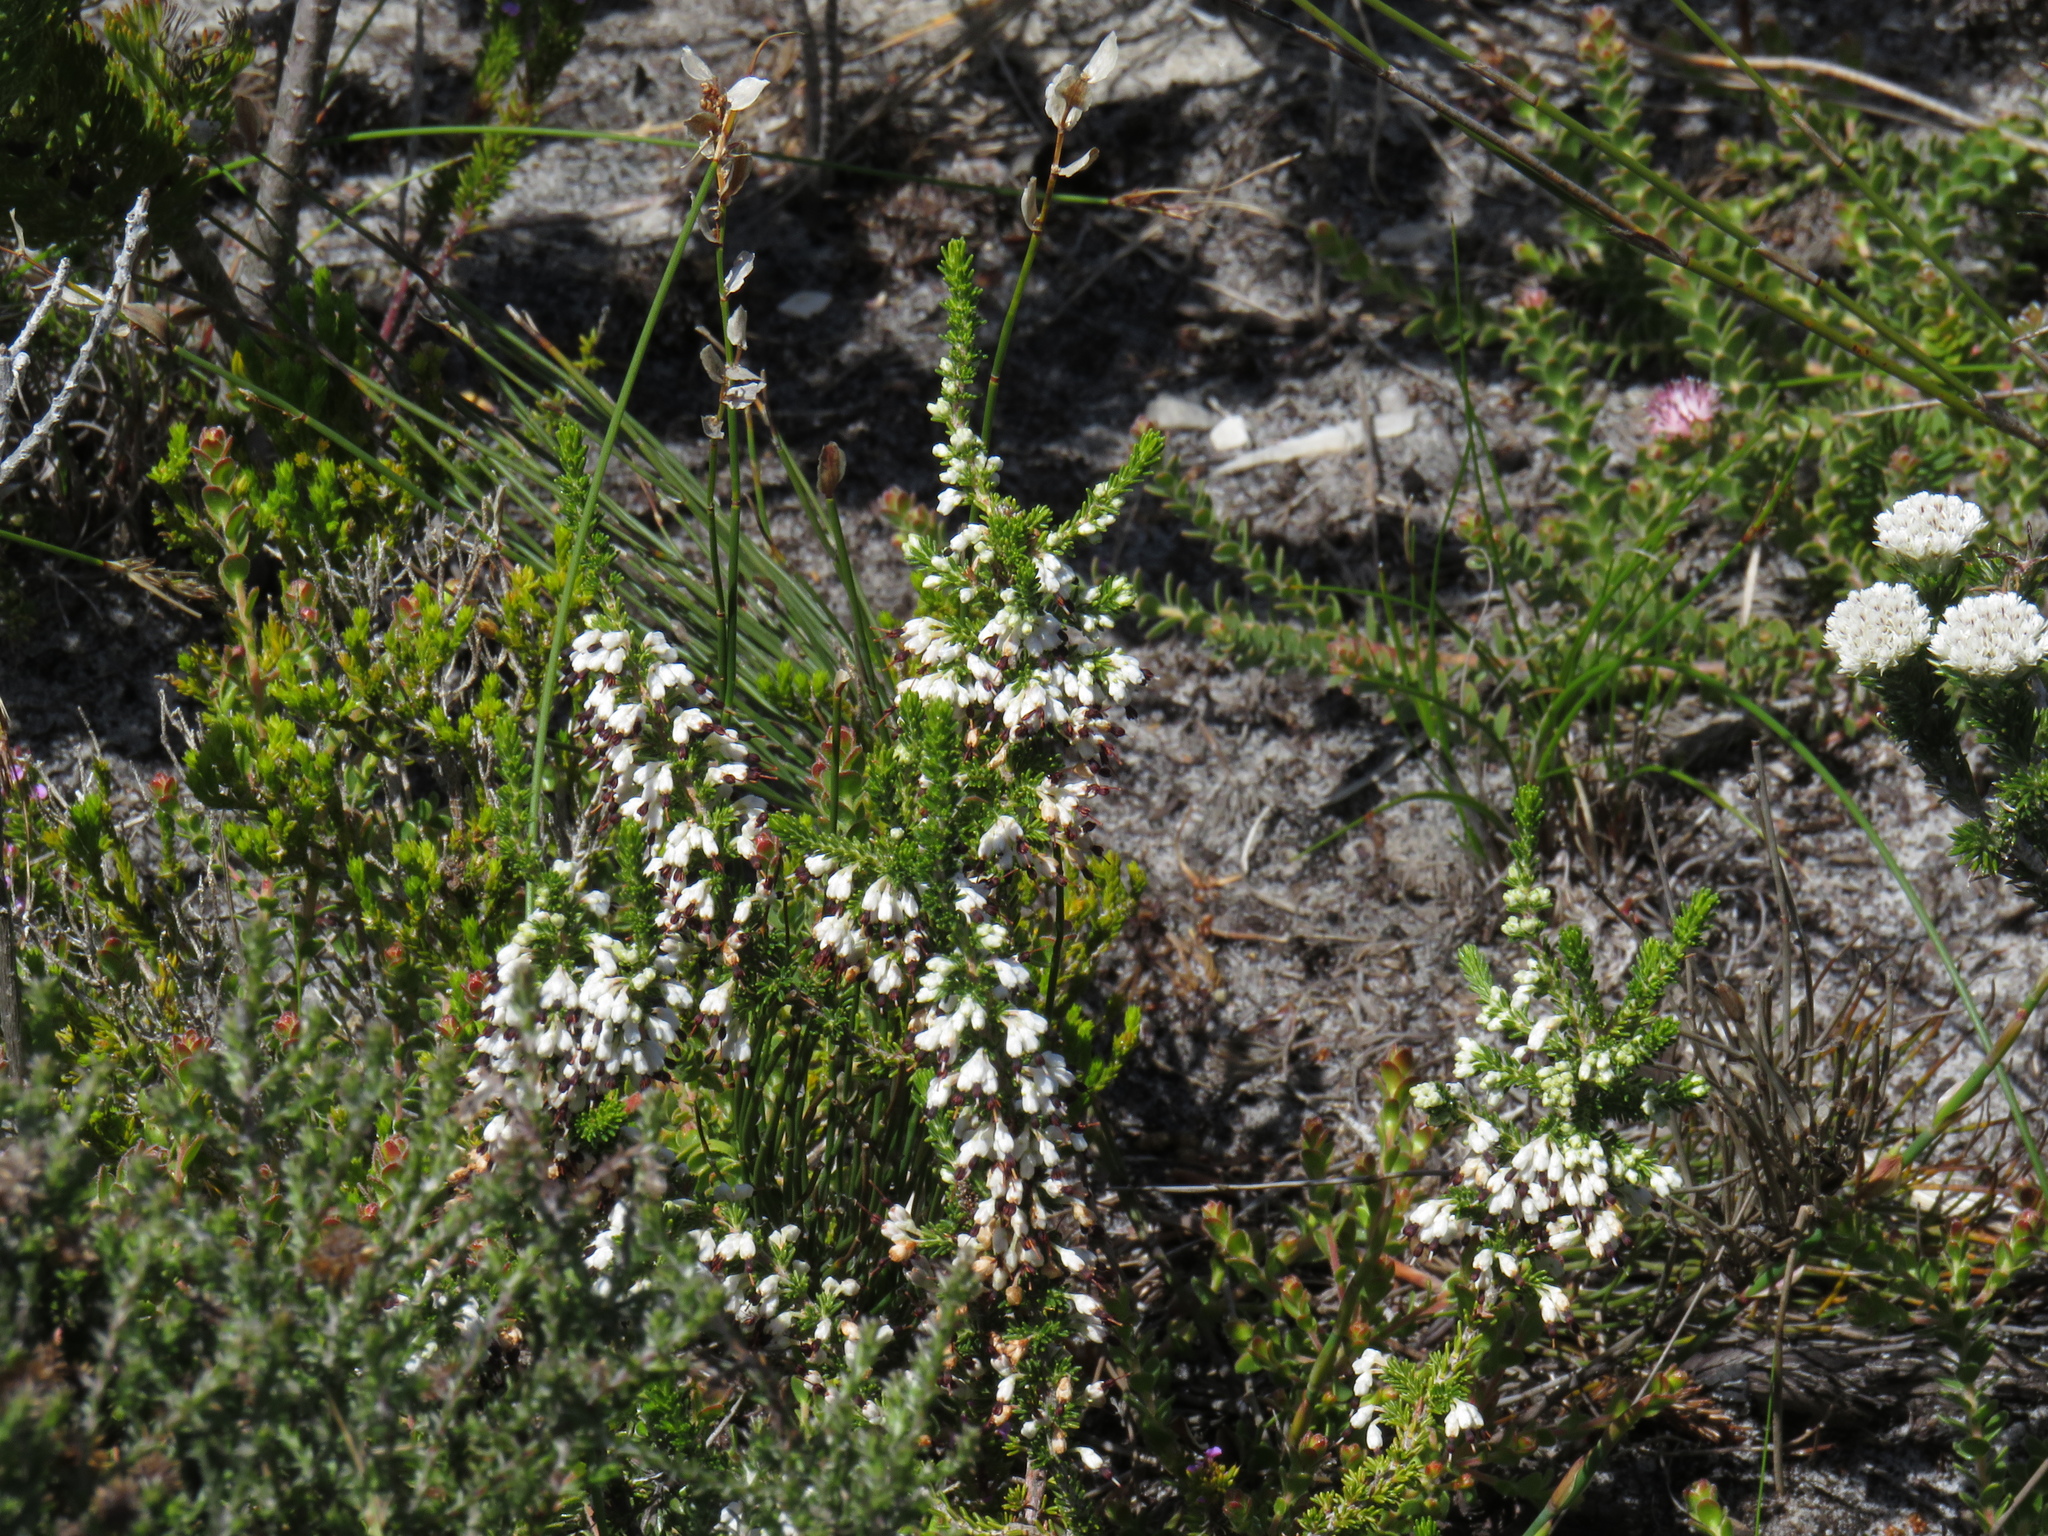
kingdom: Plantae
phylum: Tracheophyta
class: Magnoliopsida
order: Ericales
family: Ericaceae
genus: Erica
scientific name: Erica imbricata
